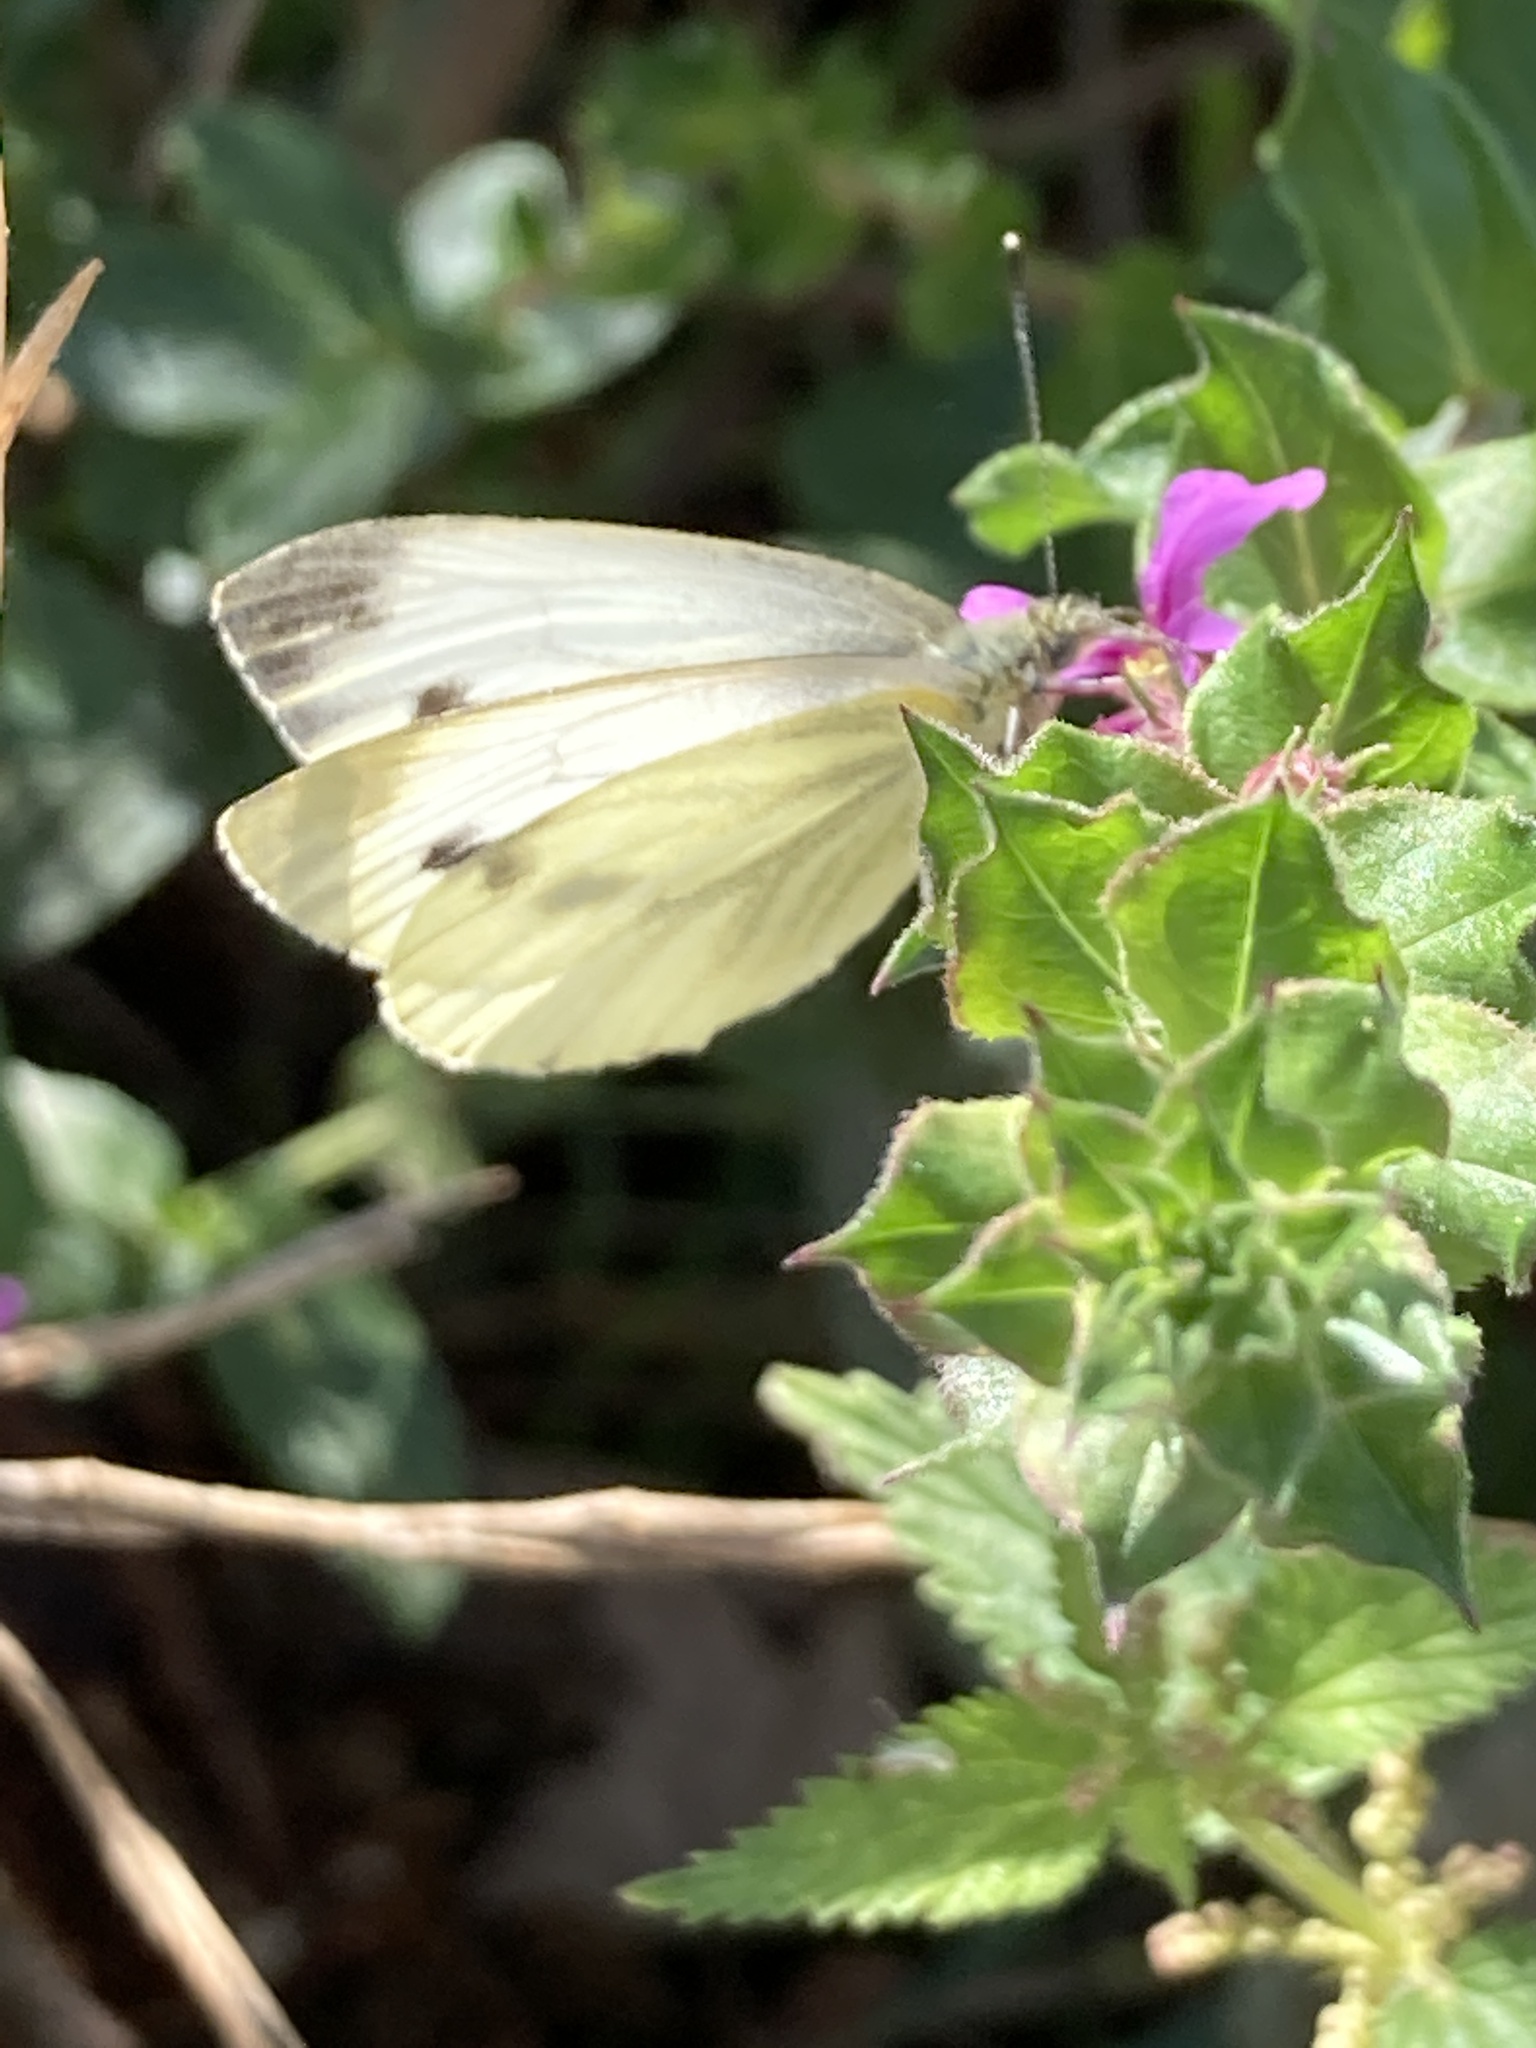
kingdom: Animalia
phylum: Arthropoda
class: Insecta
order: Lepidoptera
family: Pieridae
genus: Pieris
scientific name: Pieris napi
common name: Green-veined white
